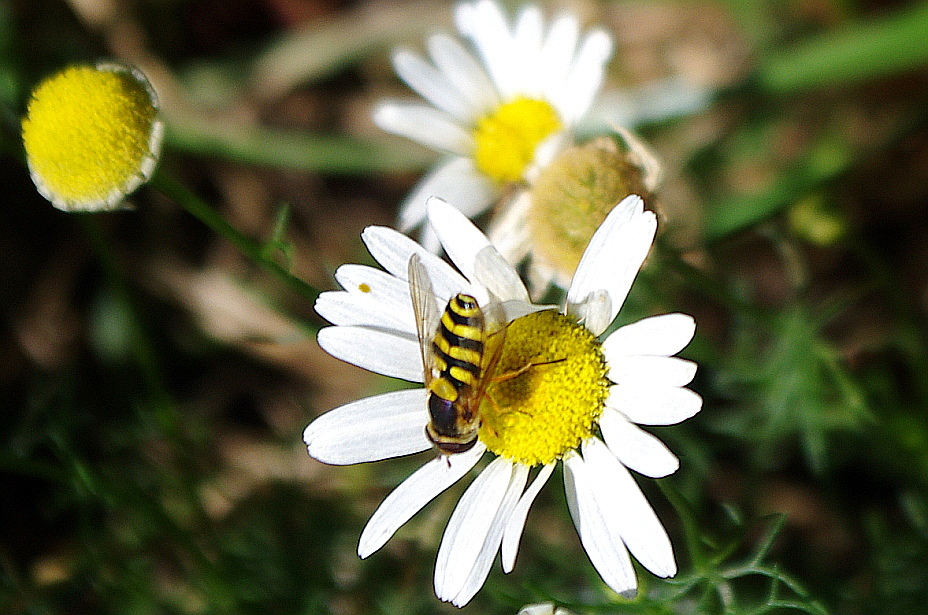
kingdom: Animalia
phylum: Arthropoda
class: Insecta
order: Diptera
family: Syrphidae
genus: Syrphus
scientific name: Syrphus ribesii
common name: Common flower fly
